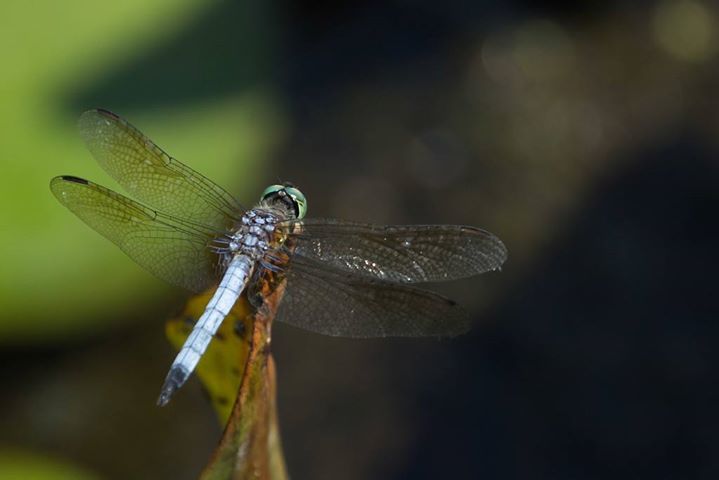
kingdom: Animalia
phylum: Arthropoda
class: Insecta
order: Odonata
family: Libellulidae
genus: Pachydiplax
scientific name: Pachydiplax longipennis
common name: Blue dasher
